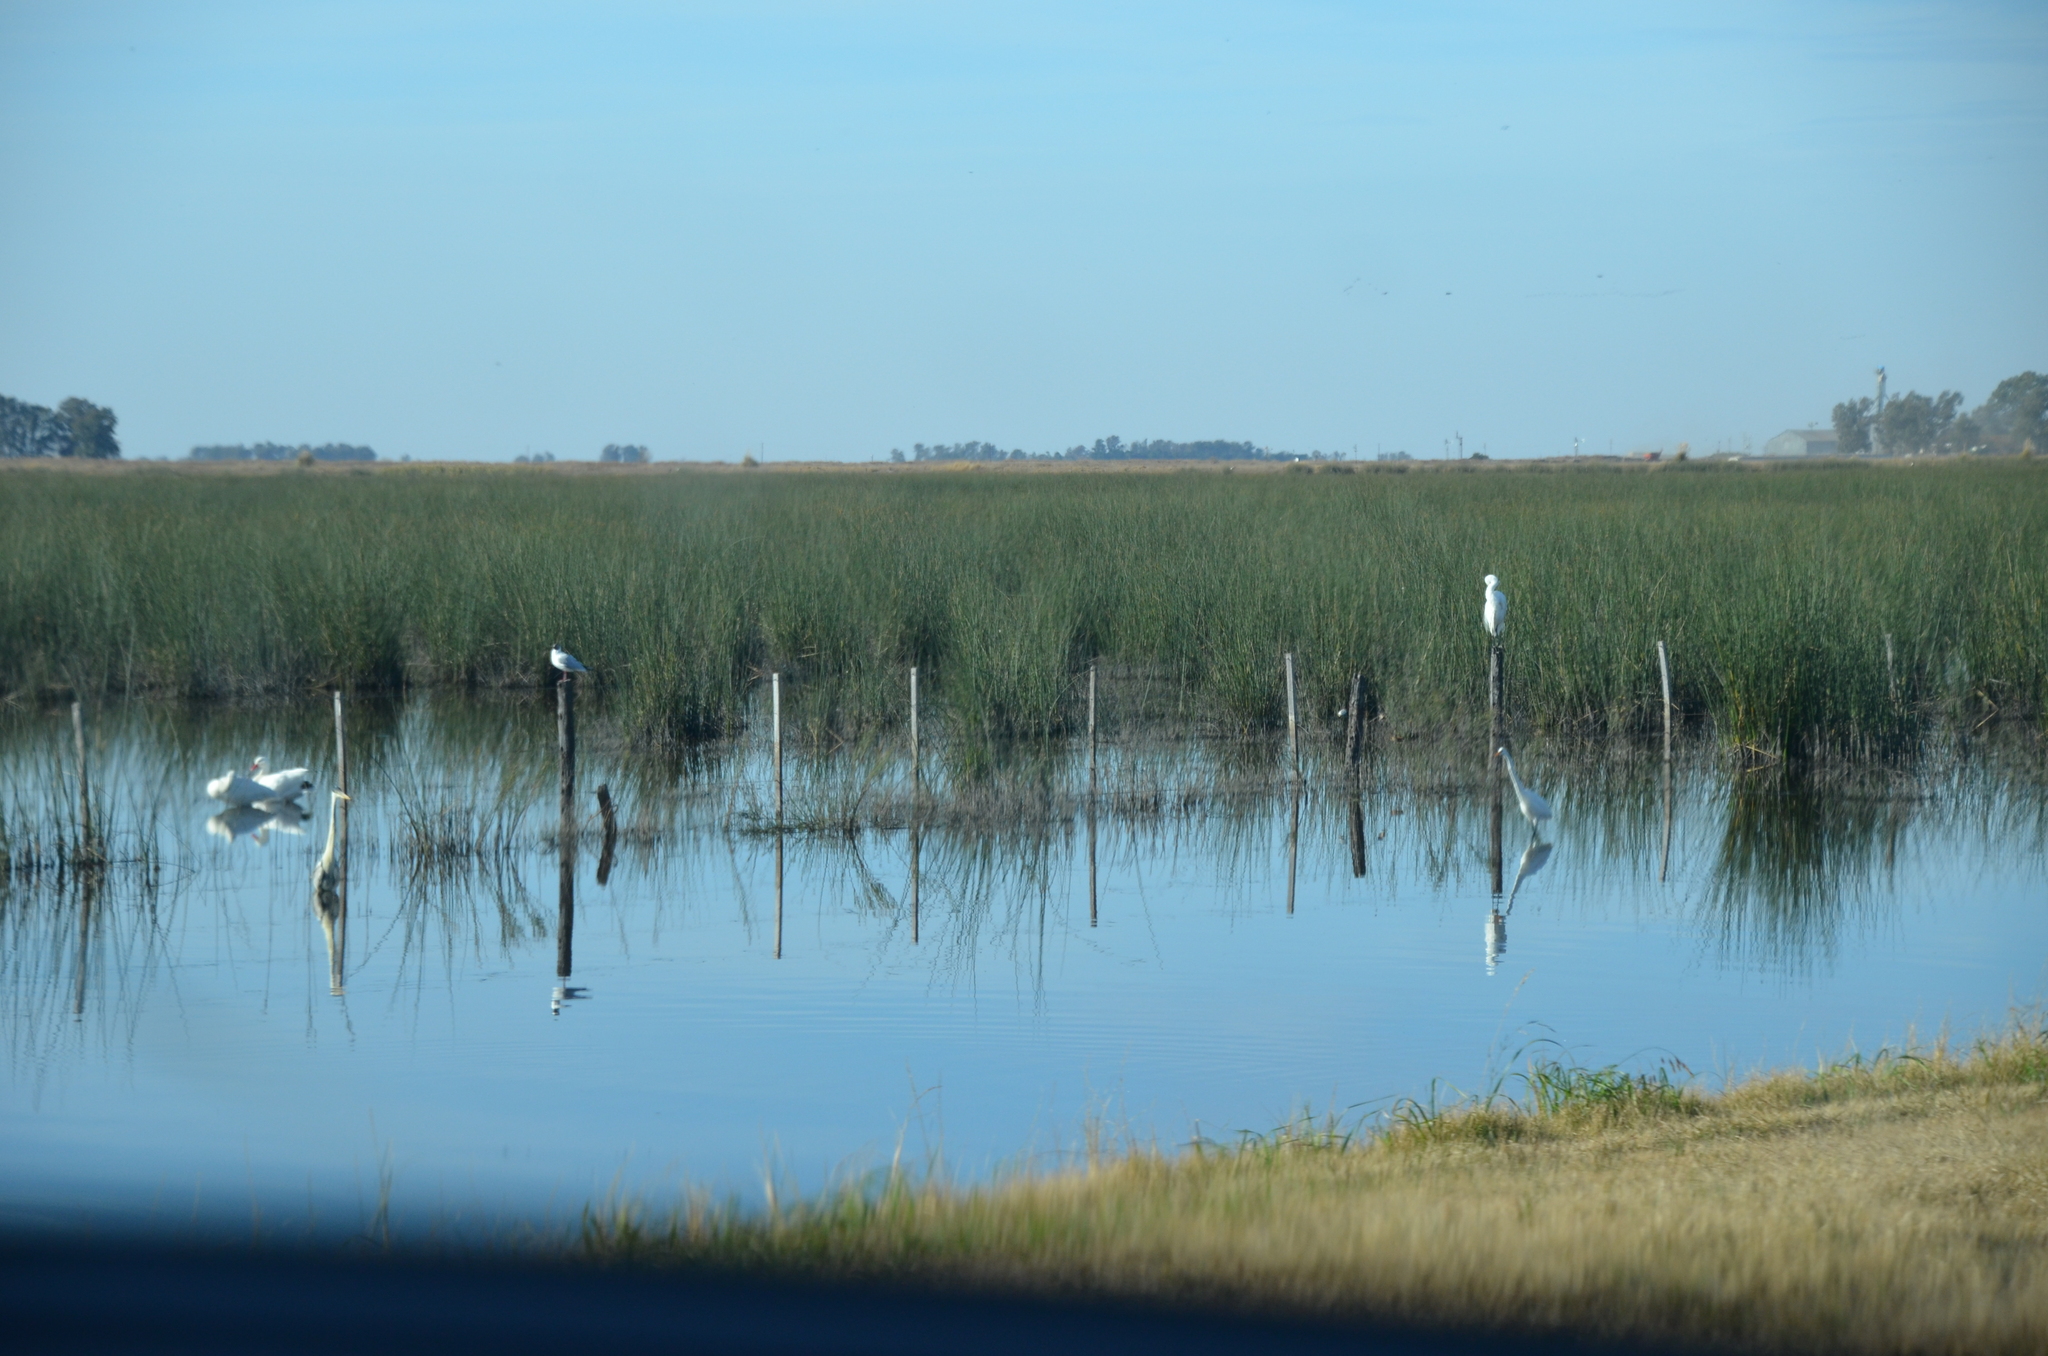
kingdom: Animalia
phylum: Chordata
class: Aves
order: Anseriformes
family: Anatidae
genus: Coscoroba
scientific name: Coscoroba coscoroba
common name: Coscoroba swan
